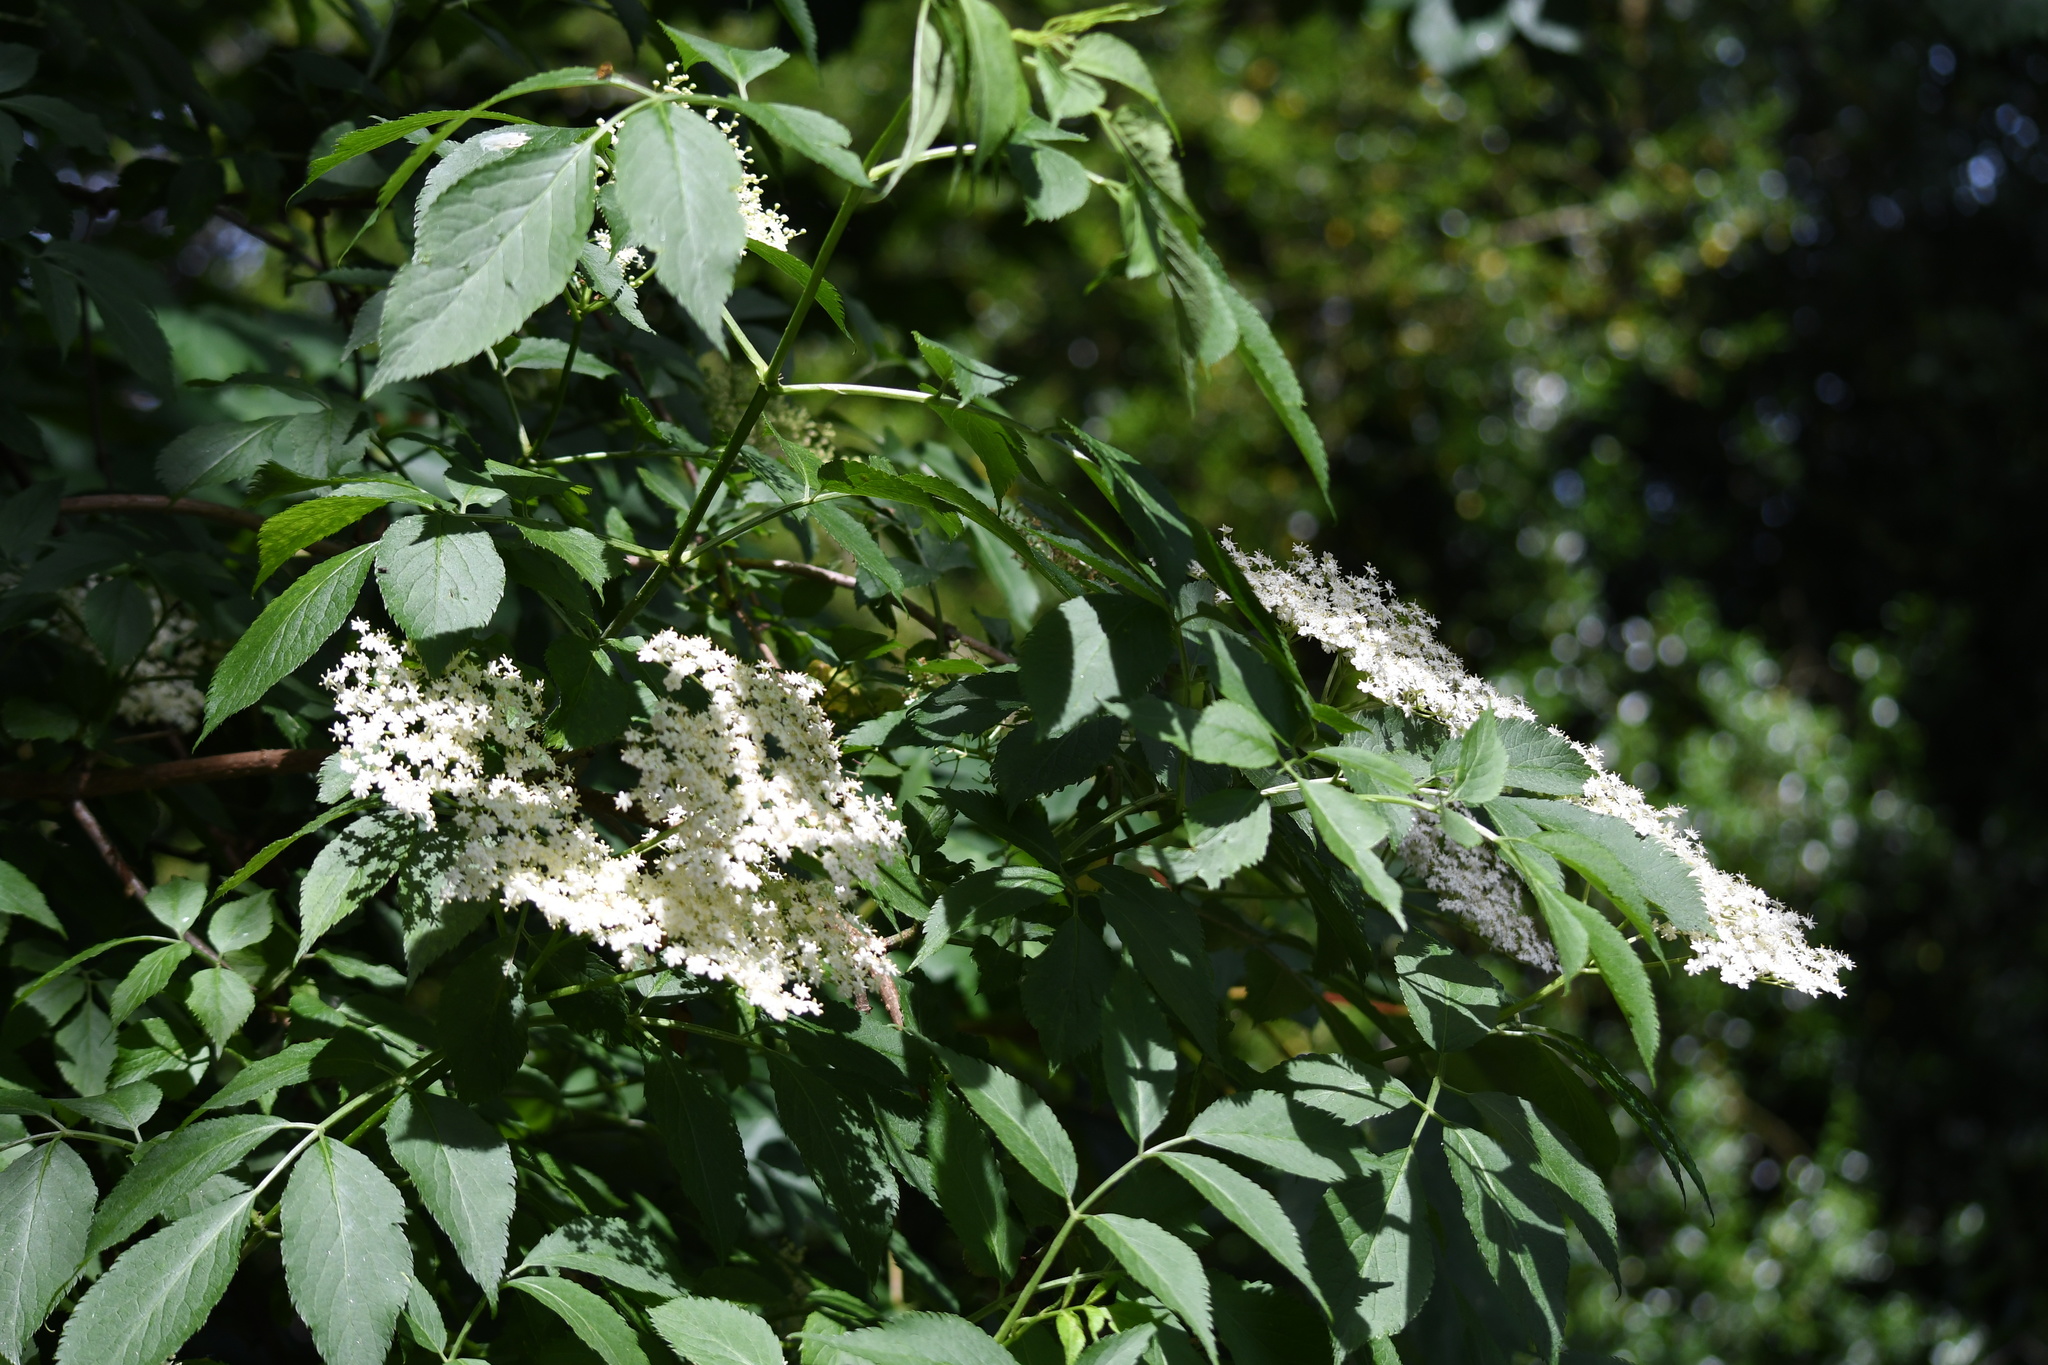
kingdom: Plantae
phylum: Tracheophyta
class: Magnoliopsida
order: Dipsacales
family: Viburnaceae
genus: Sambucus
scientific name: Sambucus nigra
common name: Elder
